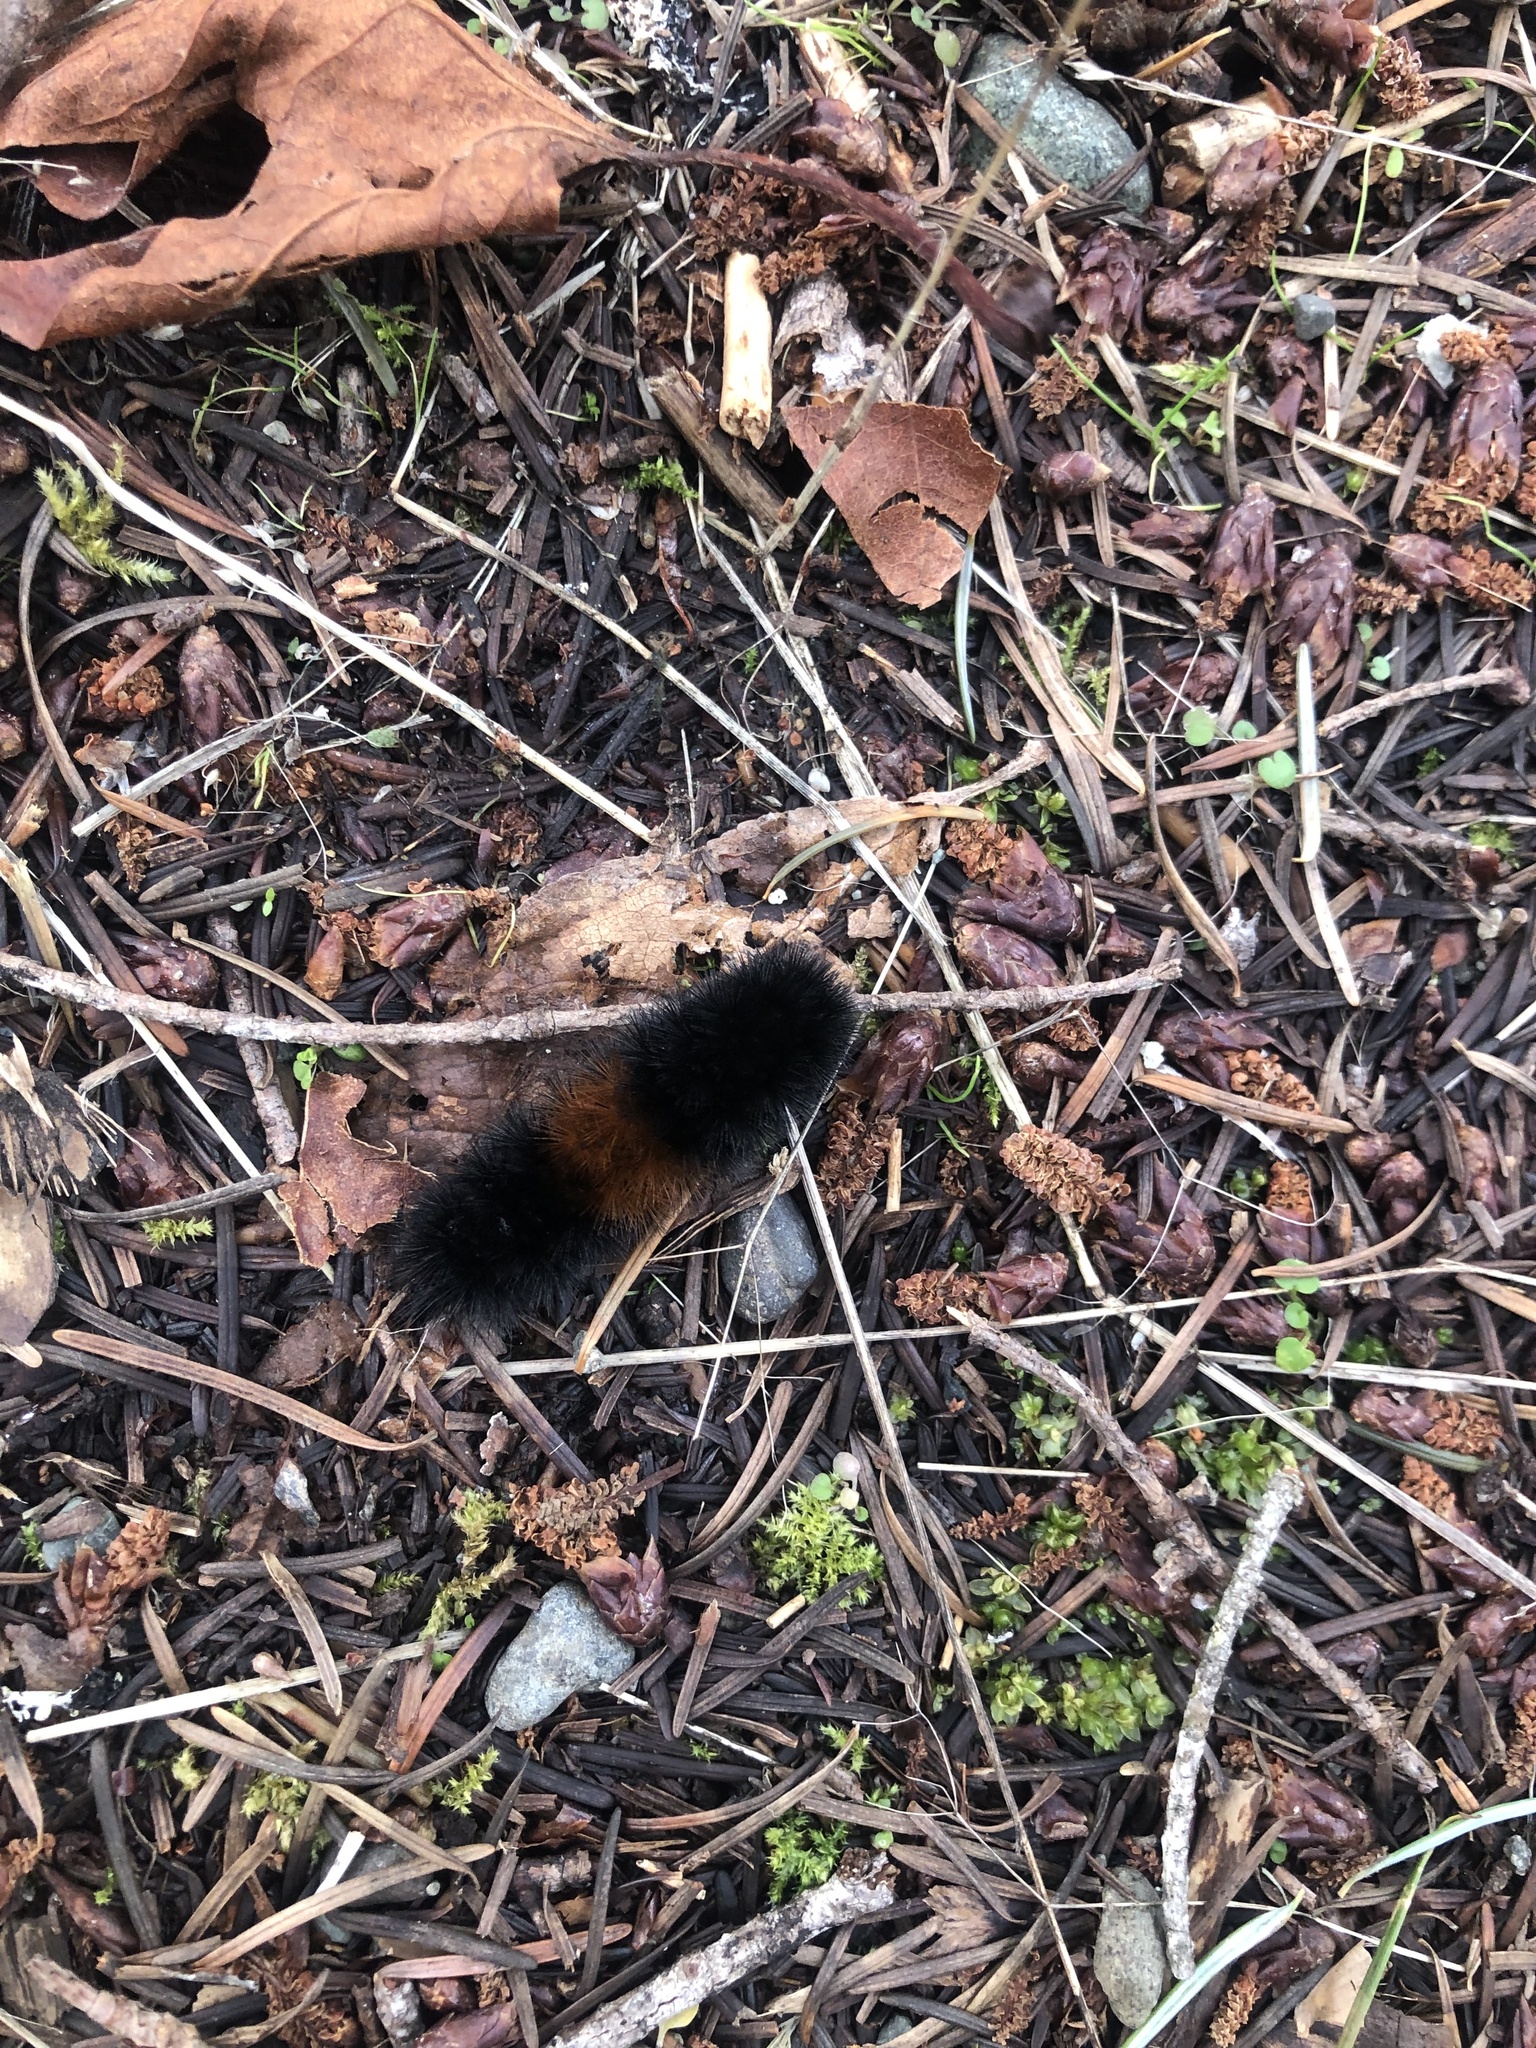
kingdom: Animalia
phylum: Arthropoda
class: Insecta
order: Lepidoptera
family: Erebidae
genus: Pyrrharctia
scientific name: Pyrrharctia isabella
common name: Isabella tiger moth
